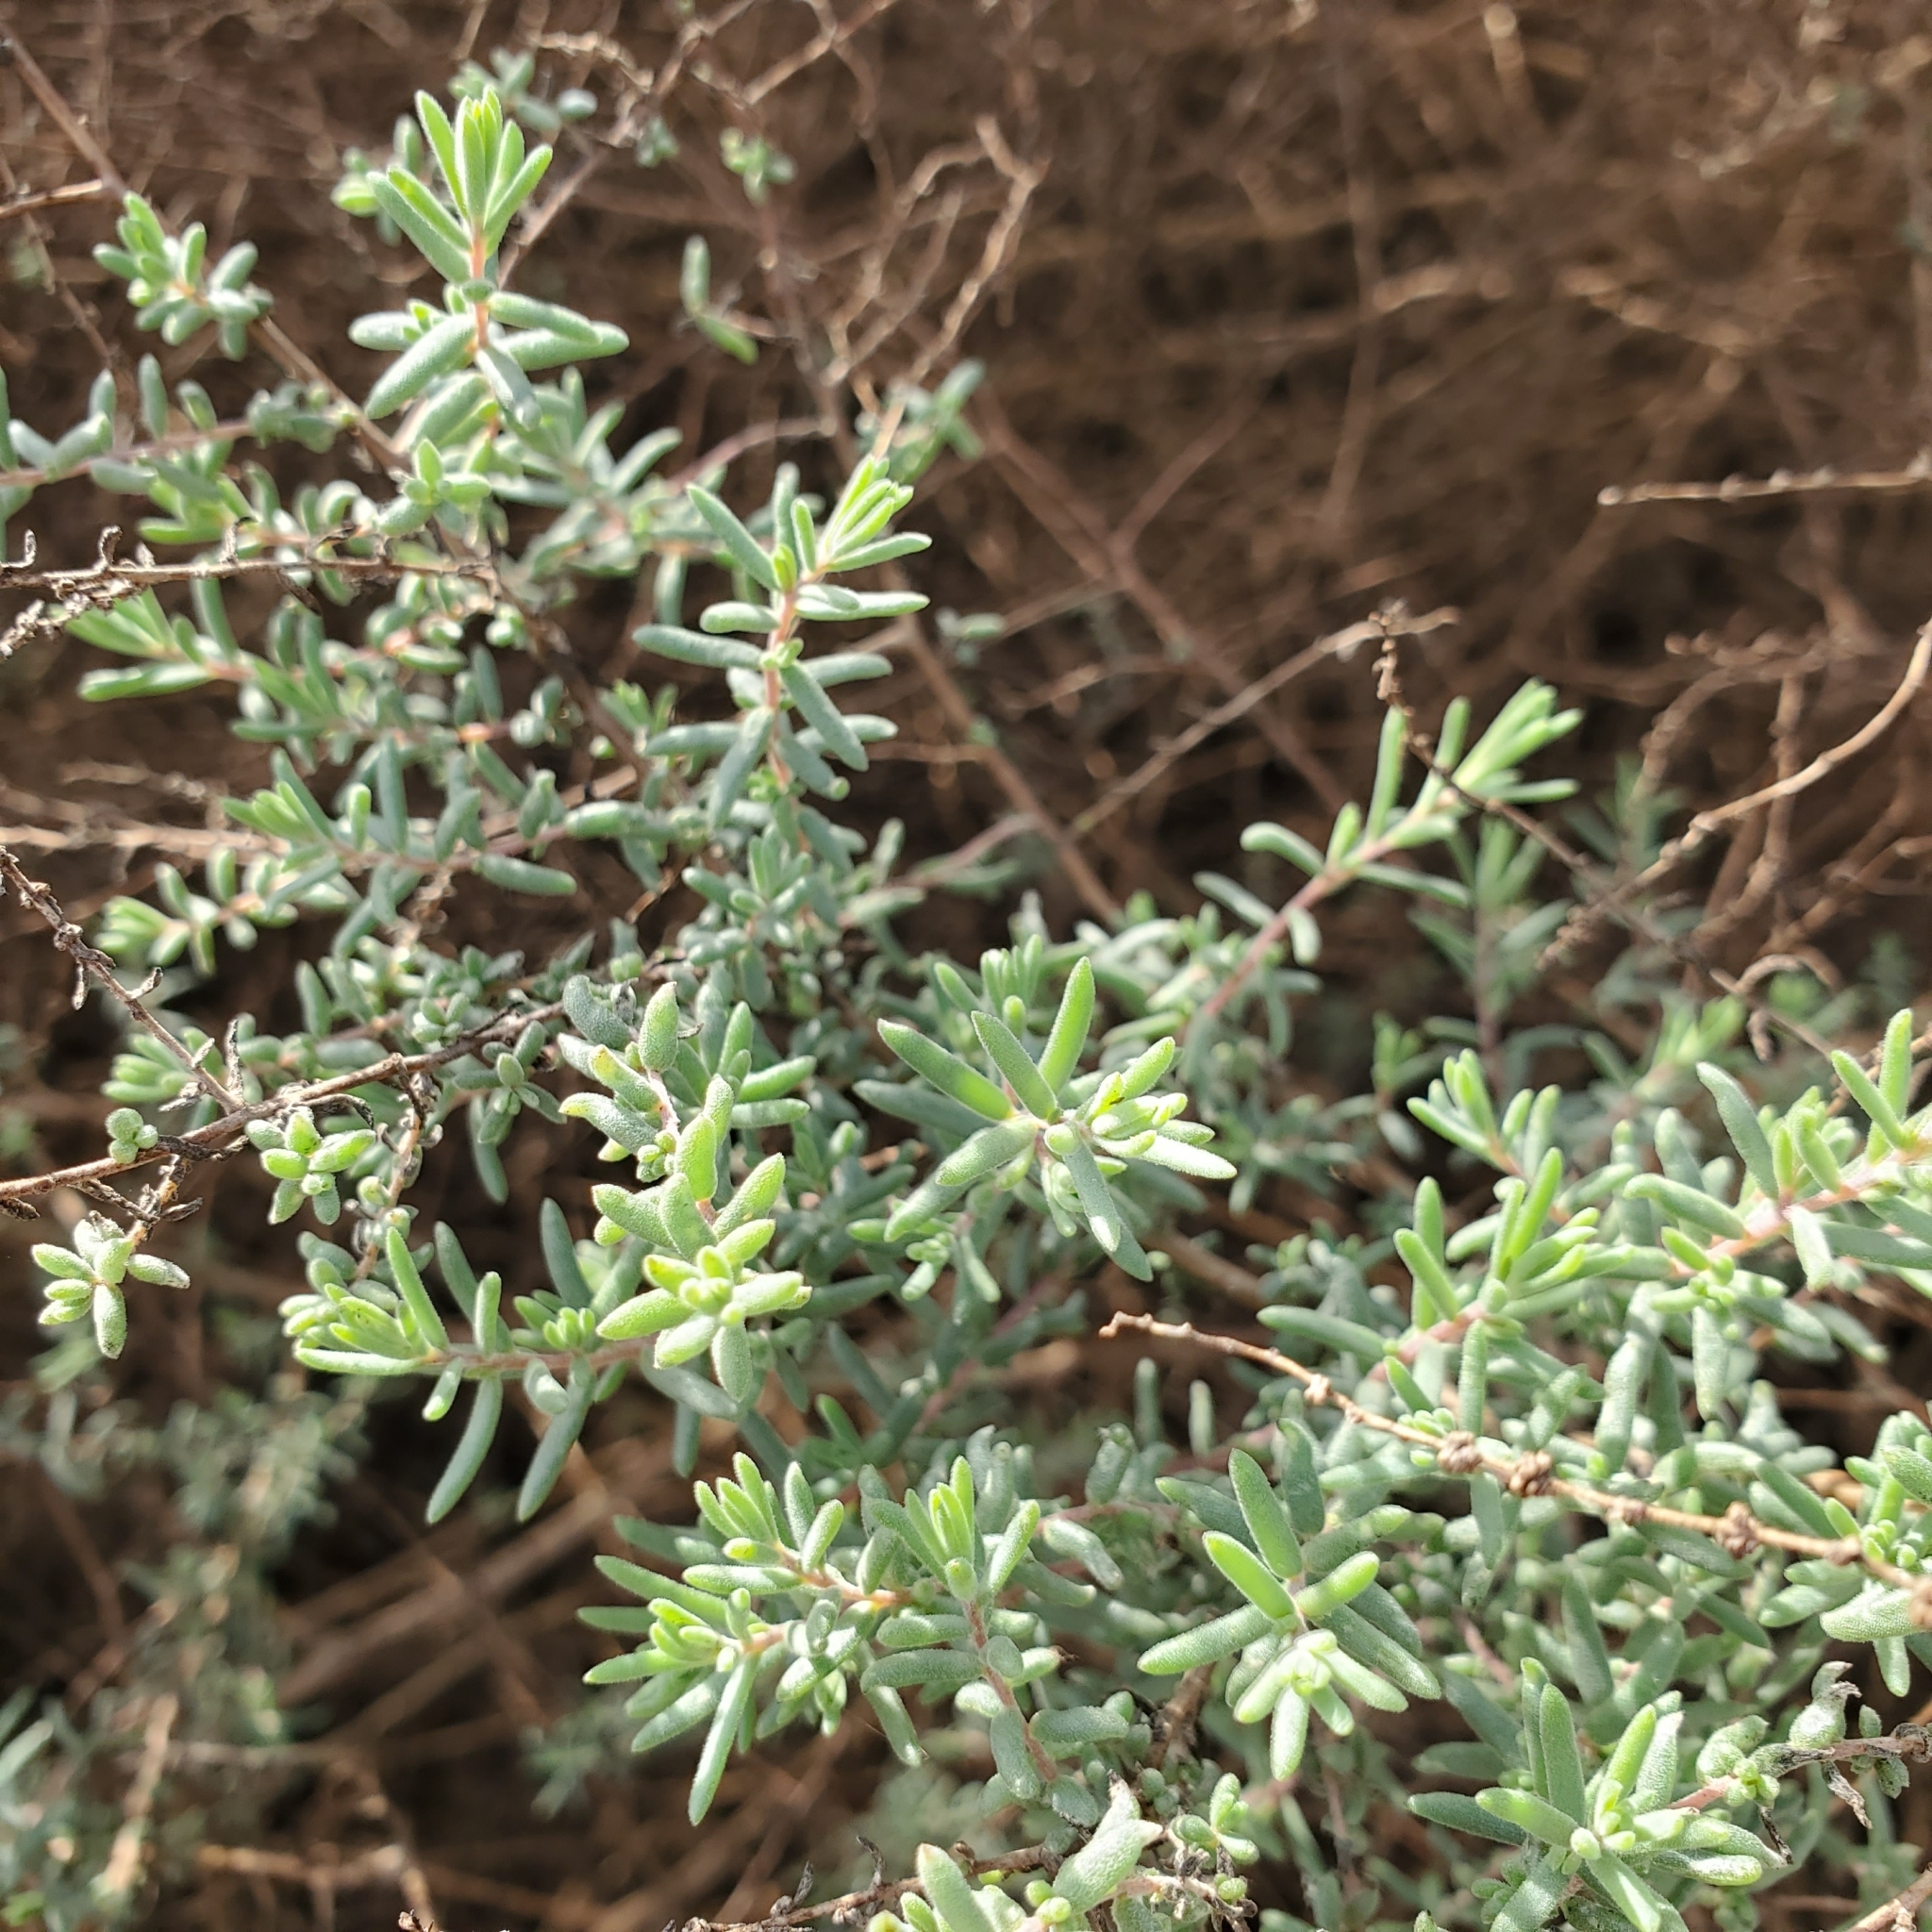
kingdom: Plantae
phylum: Tracheophyta
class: Magnoliopsida
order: Caryophyllales
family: Amaranthaceae
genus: Suaeda
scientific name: Suaeda nigra
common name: Bush seepweed
